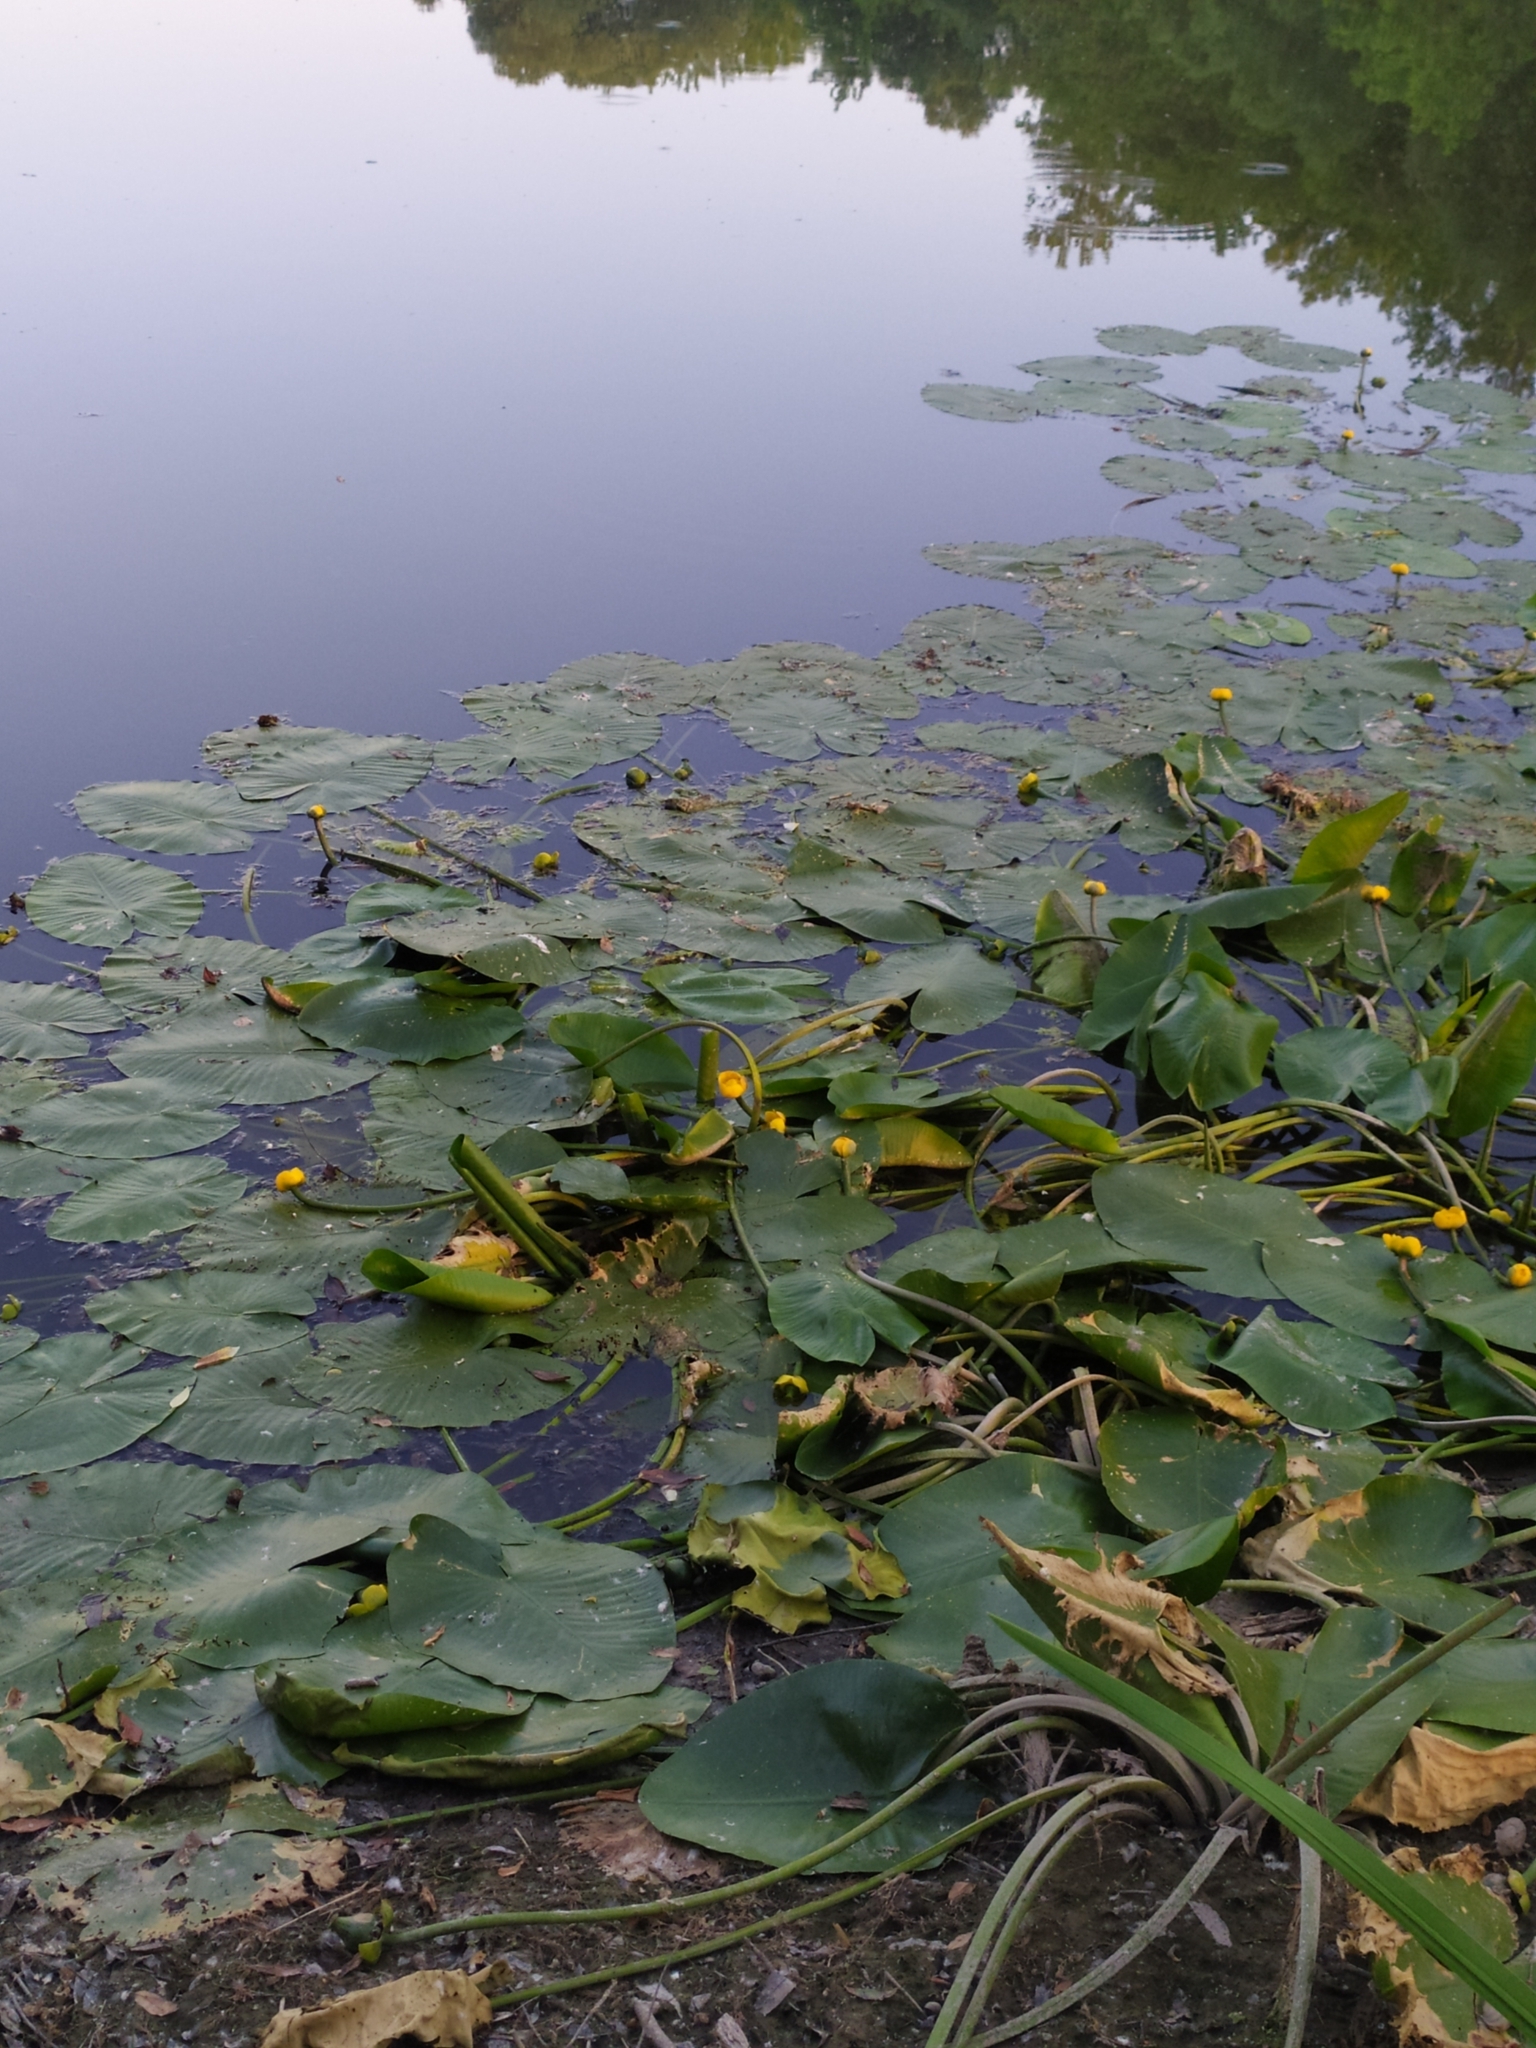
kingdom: Plantae
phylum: Tracheophyta
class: Magnoliopsida
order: Nymphaeales
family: Nymphaeaceae
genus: Nuphar
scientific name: Nuphar lutea
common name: Yellow water-lily
